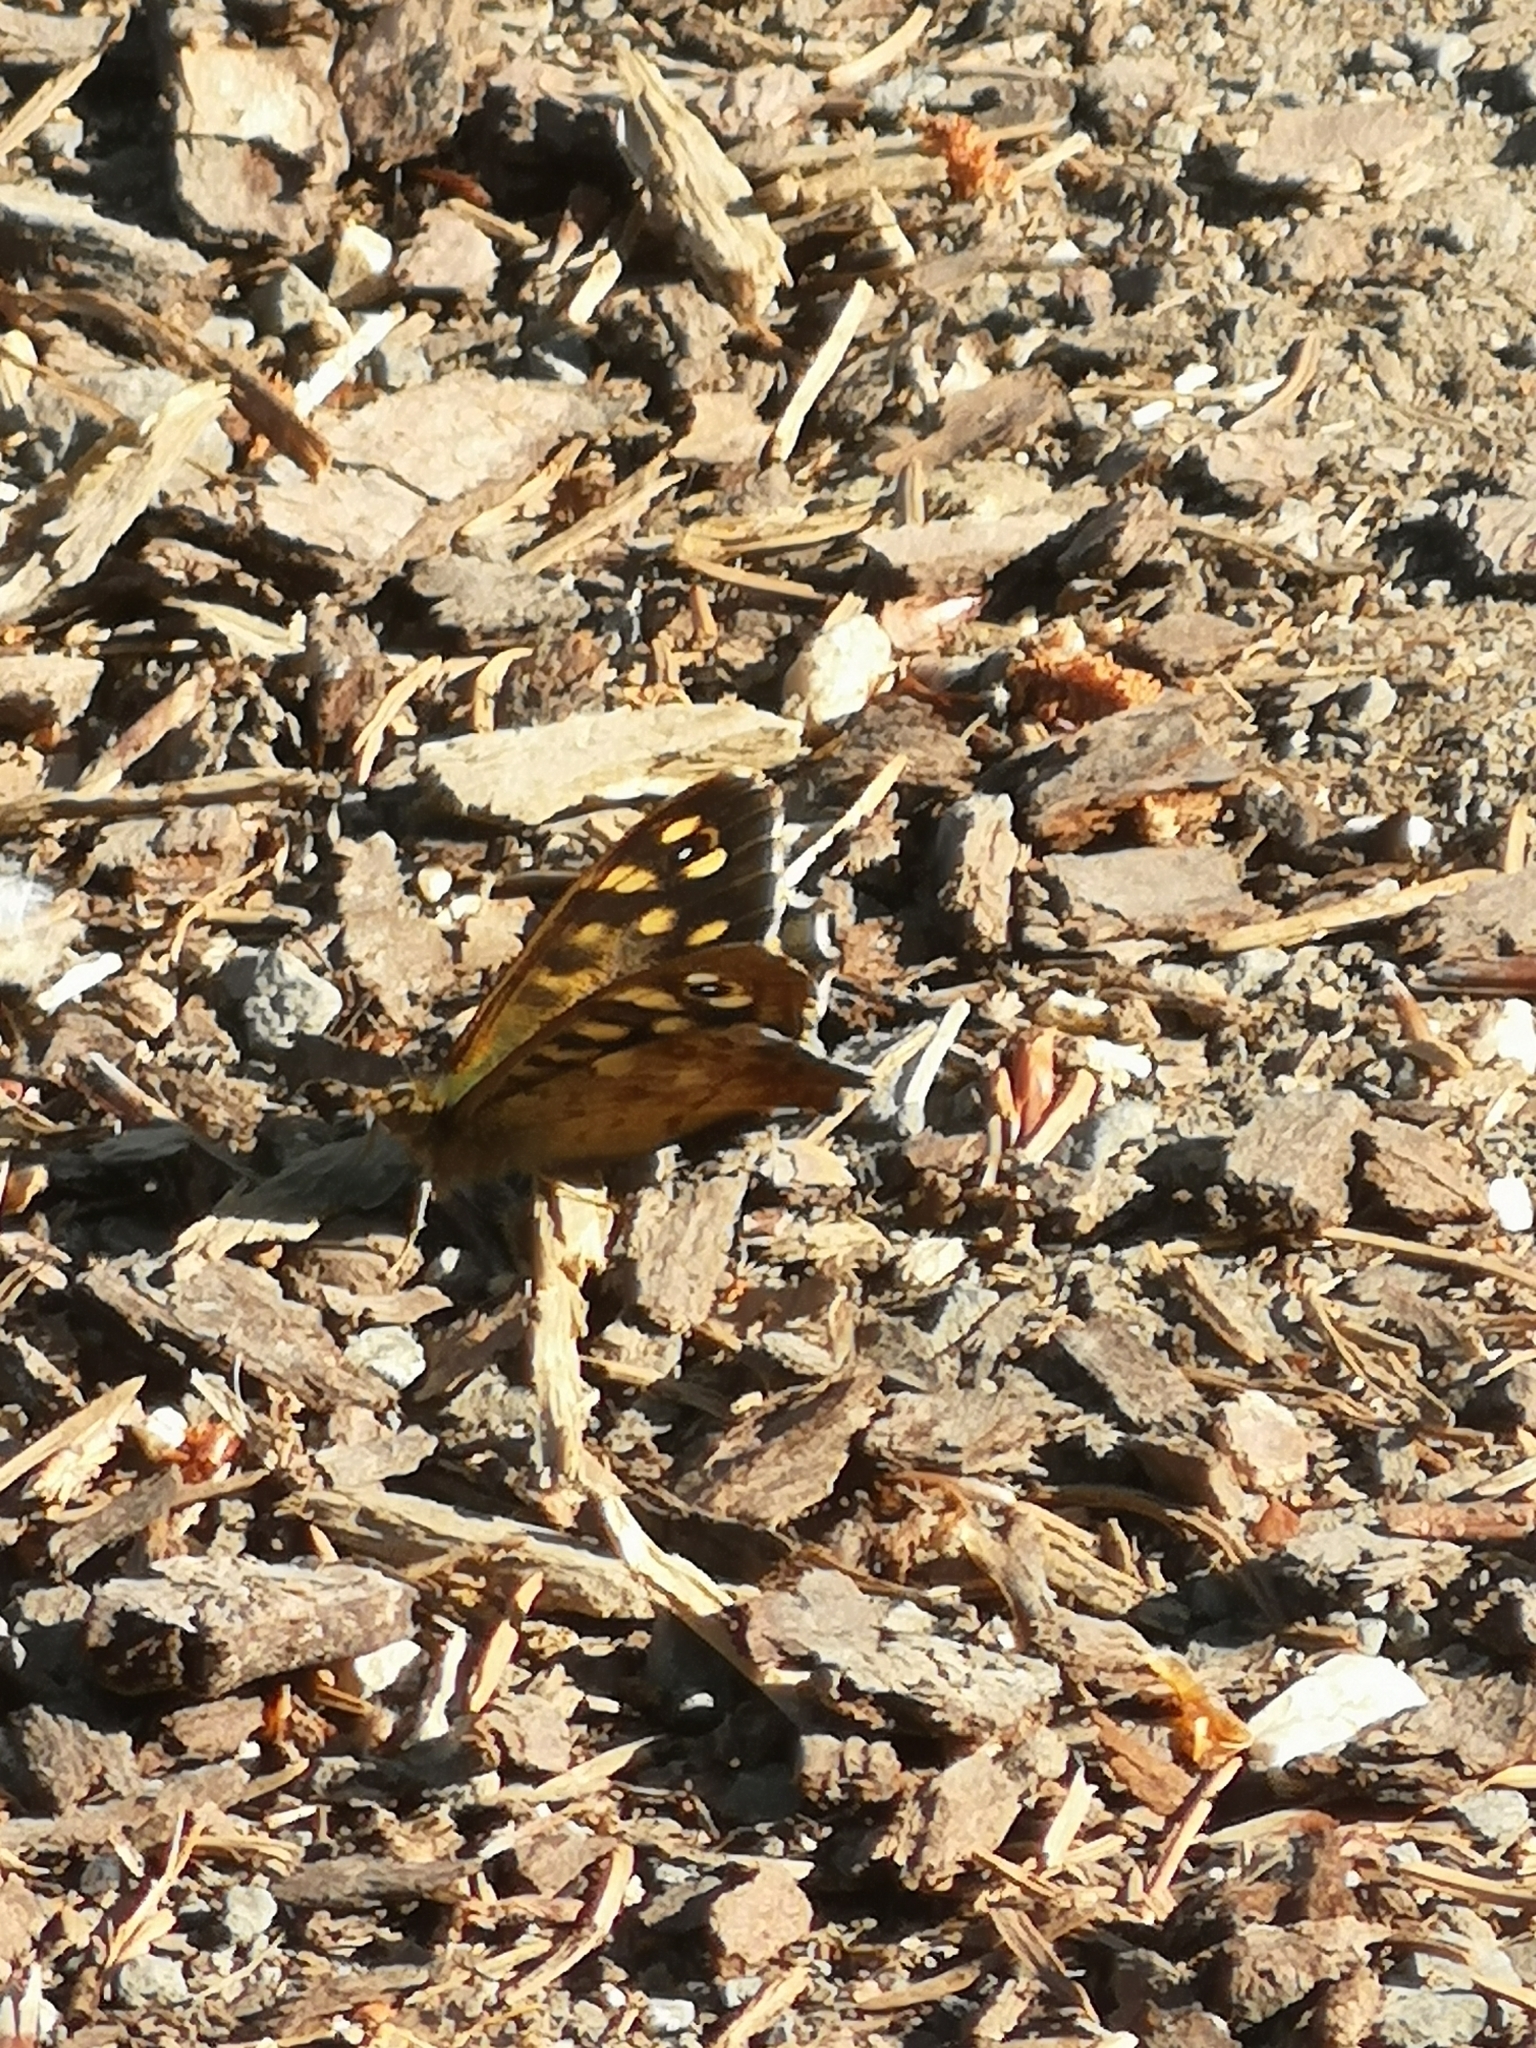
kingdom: Animalia
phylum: Arthropoda
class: Insecta
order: Lepidoptera
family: Nymphalidae
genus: Pararge
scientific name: Pararge aegeria
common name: Speckled wood
